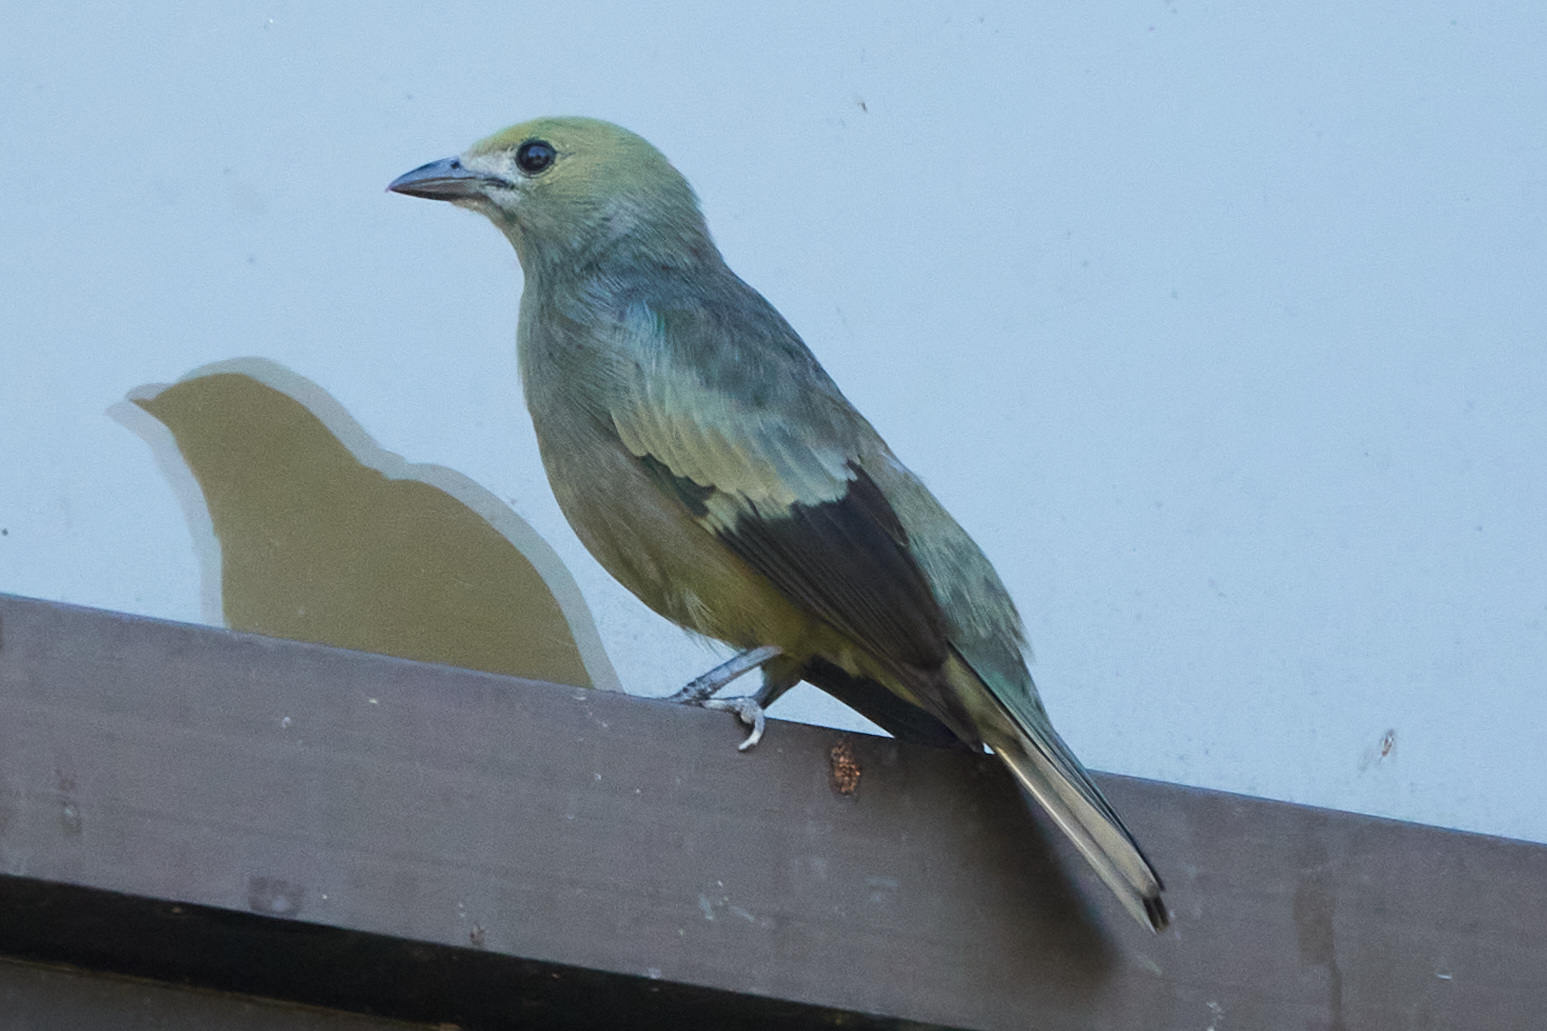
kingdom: Animalia
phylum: Chordata
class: Aves
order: Passeriformes
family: Thraupidae
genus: Thraupis
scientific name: Thraupis palmarum
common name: Palm tanager
